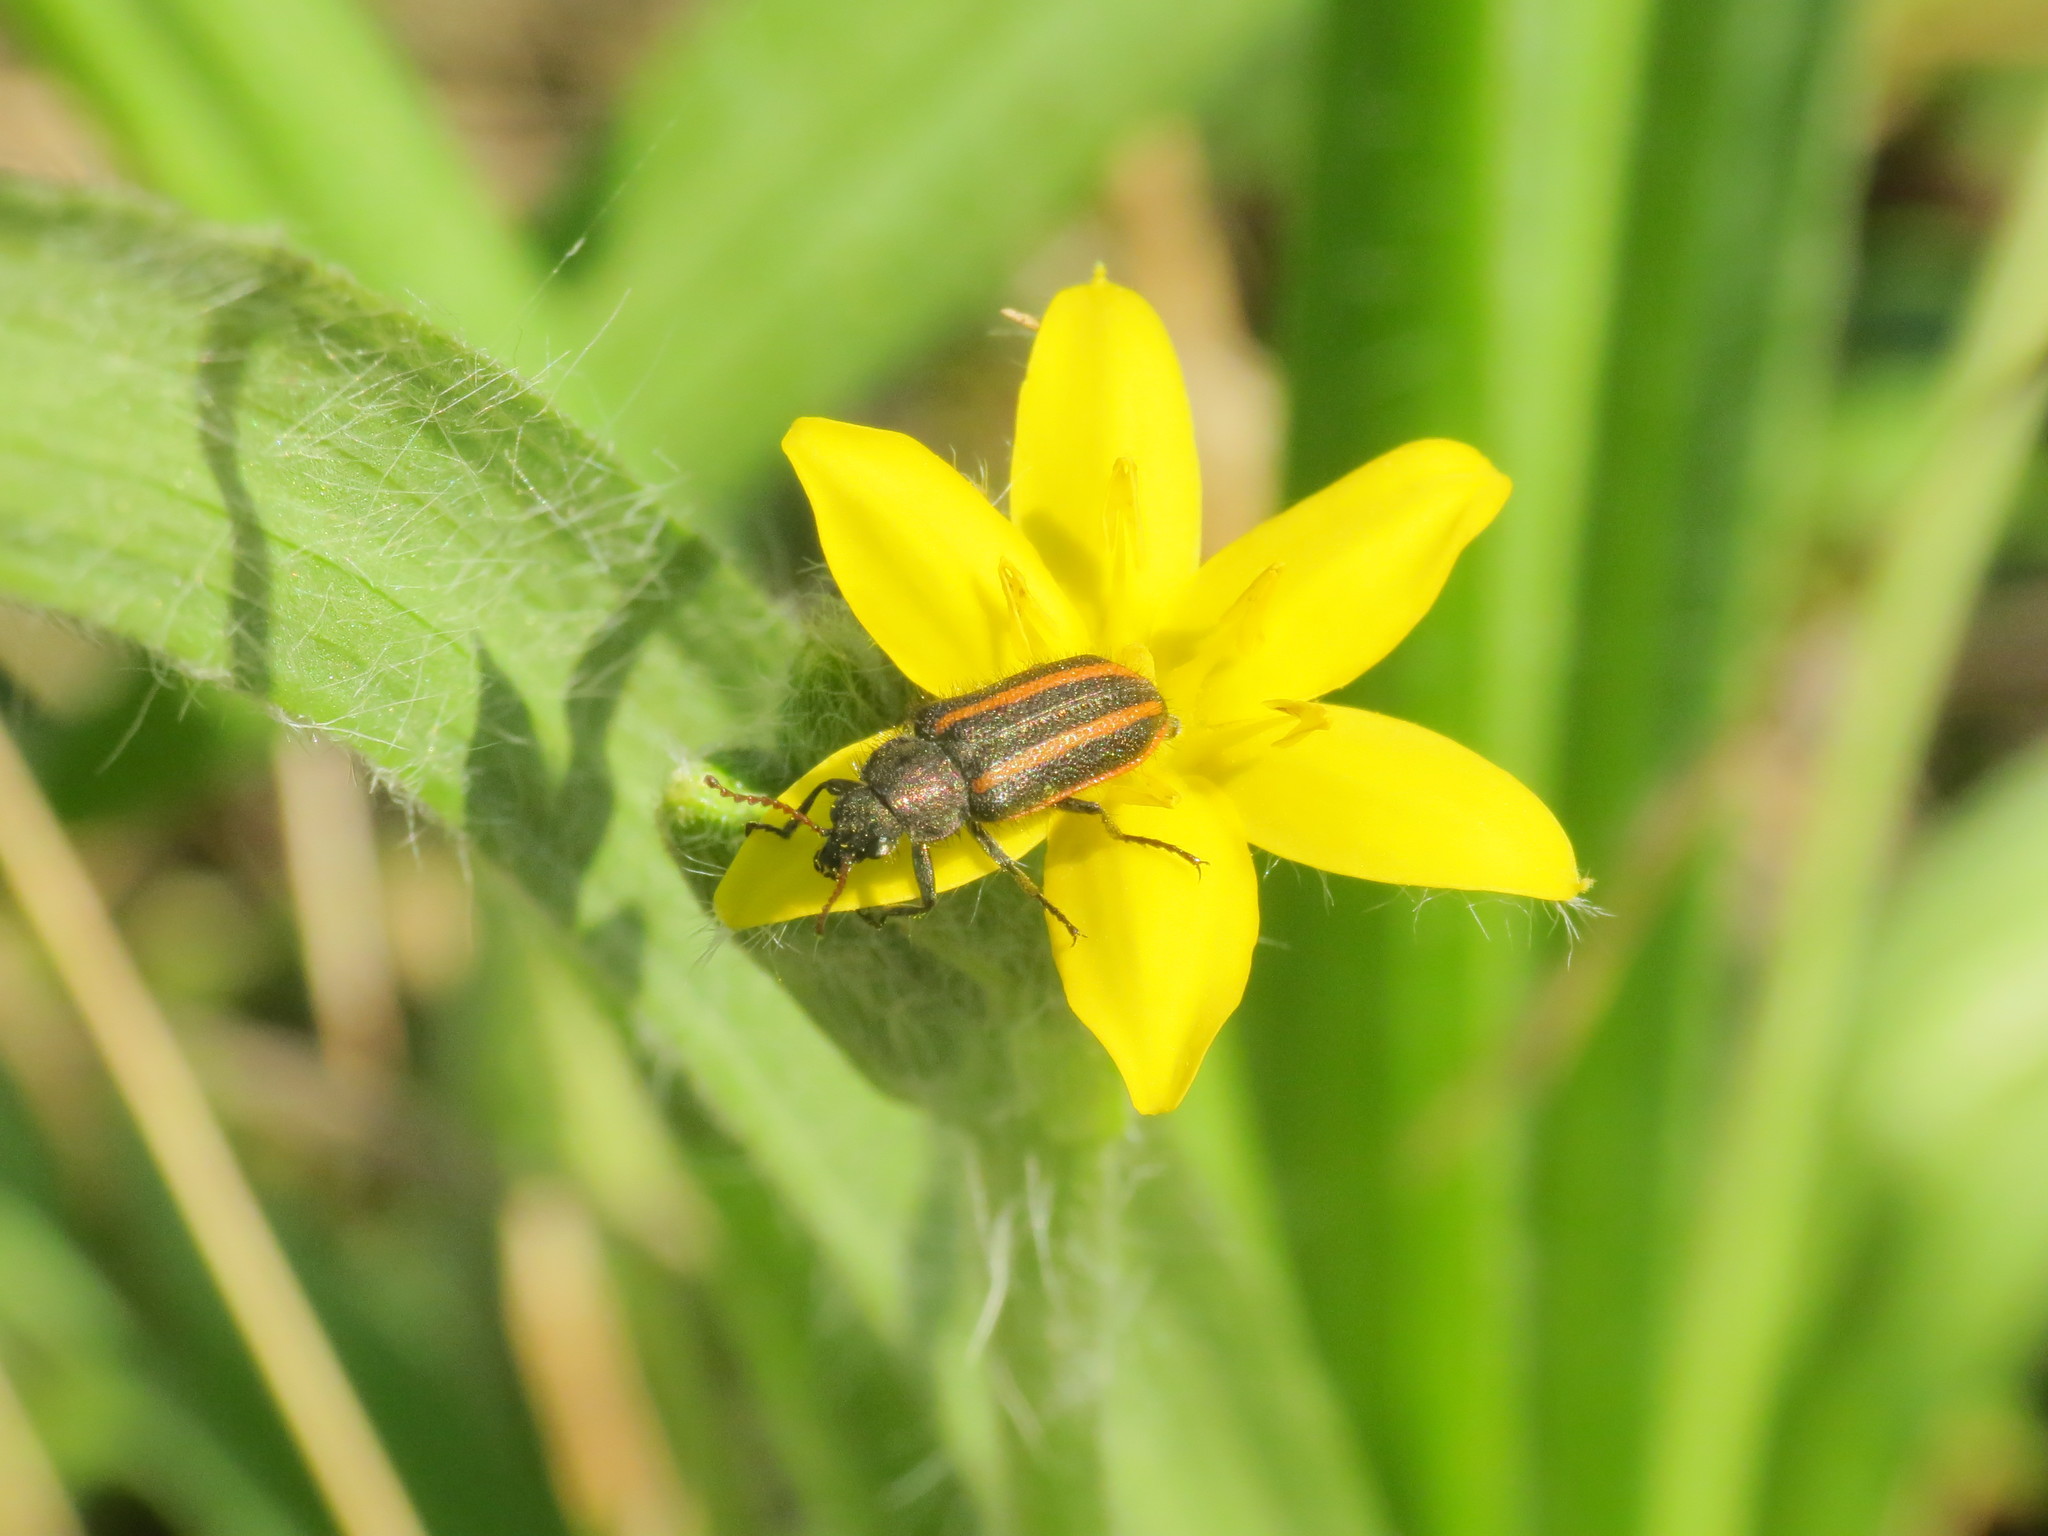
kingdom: Animalia
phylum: Arthropoda
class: Insecta
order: Coleoptera
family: Melyridae
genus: Astylus
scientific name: Astylus
